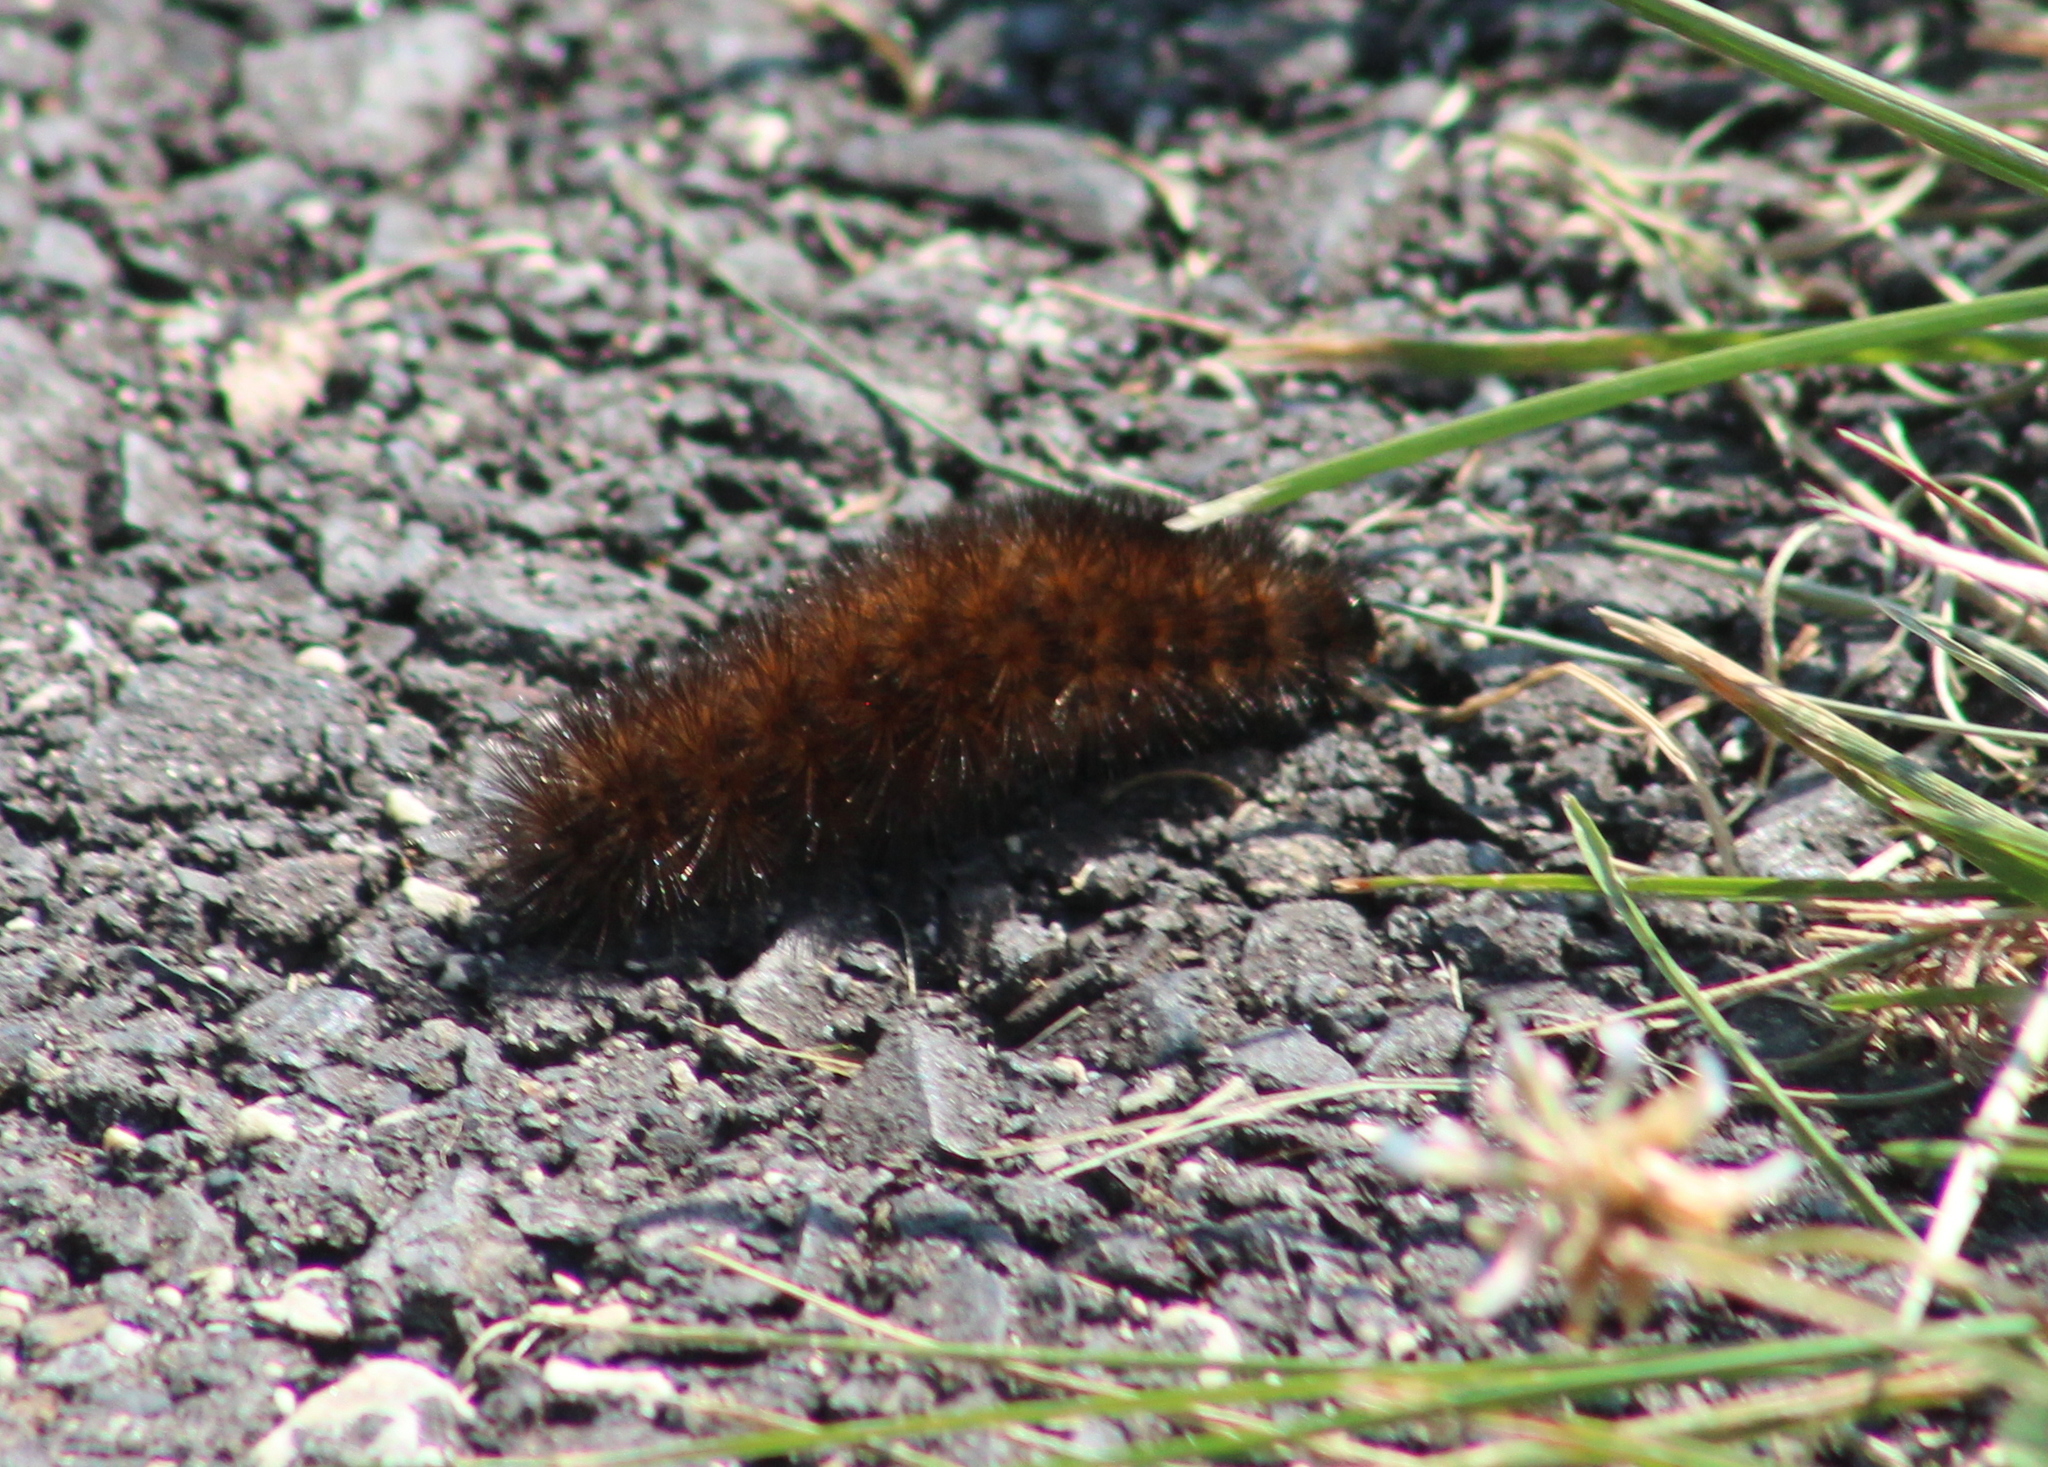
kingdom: Animalia
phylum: Arthropoda
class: Insecta
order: Lepidoptera
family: Erebidae
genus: Pyrrharctia
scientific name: Pyrrharctia isabella
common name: Isabella tiger moth
